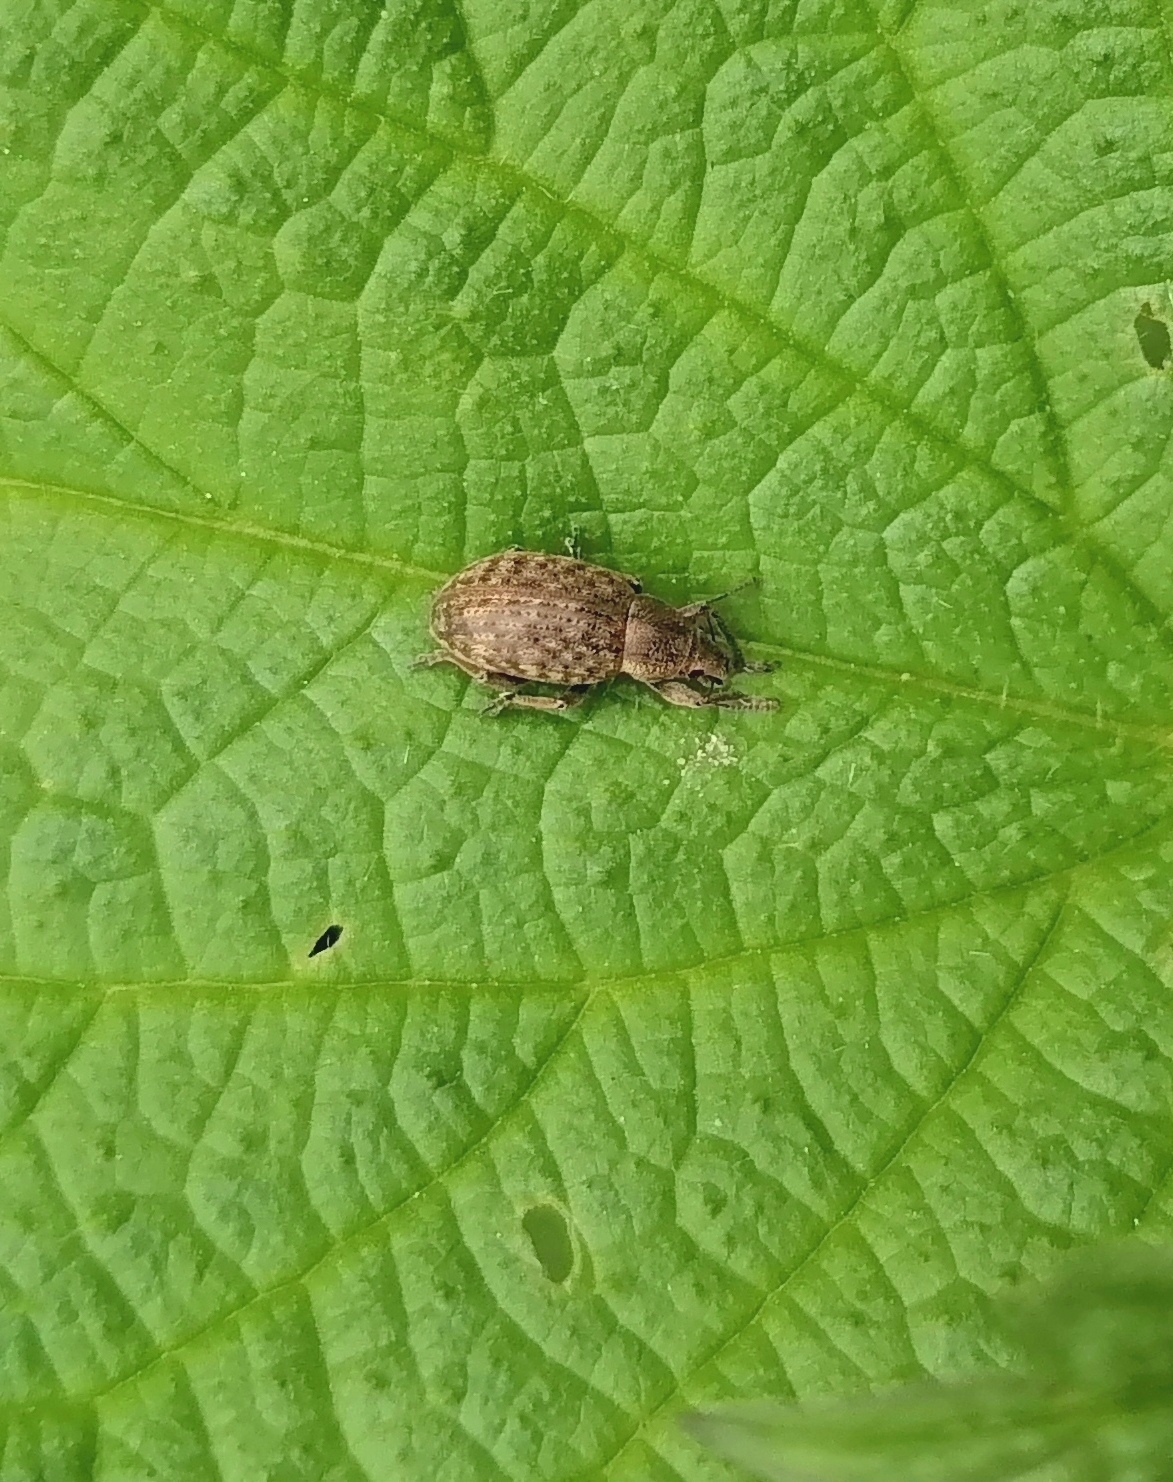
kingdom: Animalia
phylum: Arthropoda
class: Insecta
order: Coleoptera
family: Curculionidae
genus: Pholicodes
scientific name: Pholicodes inauratus
